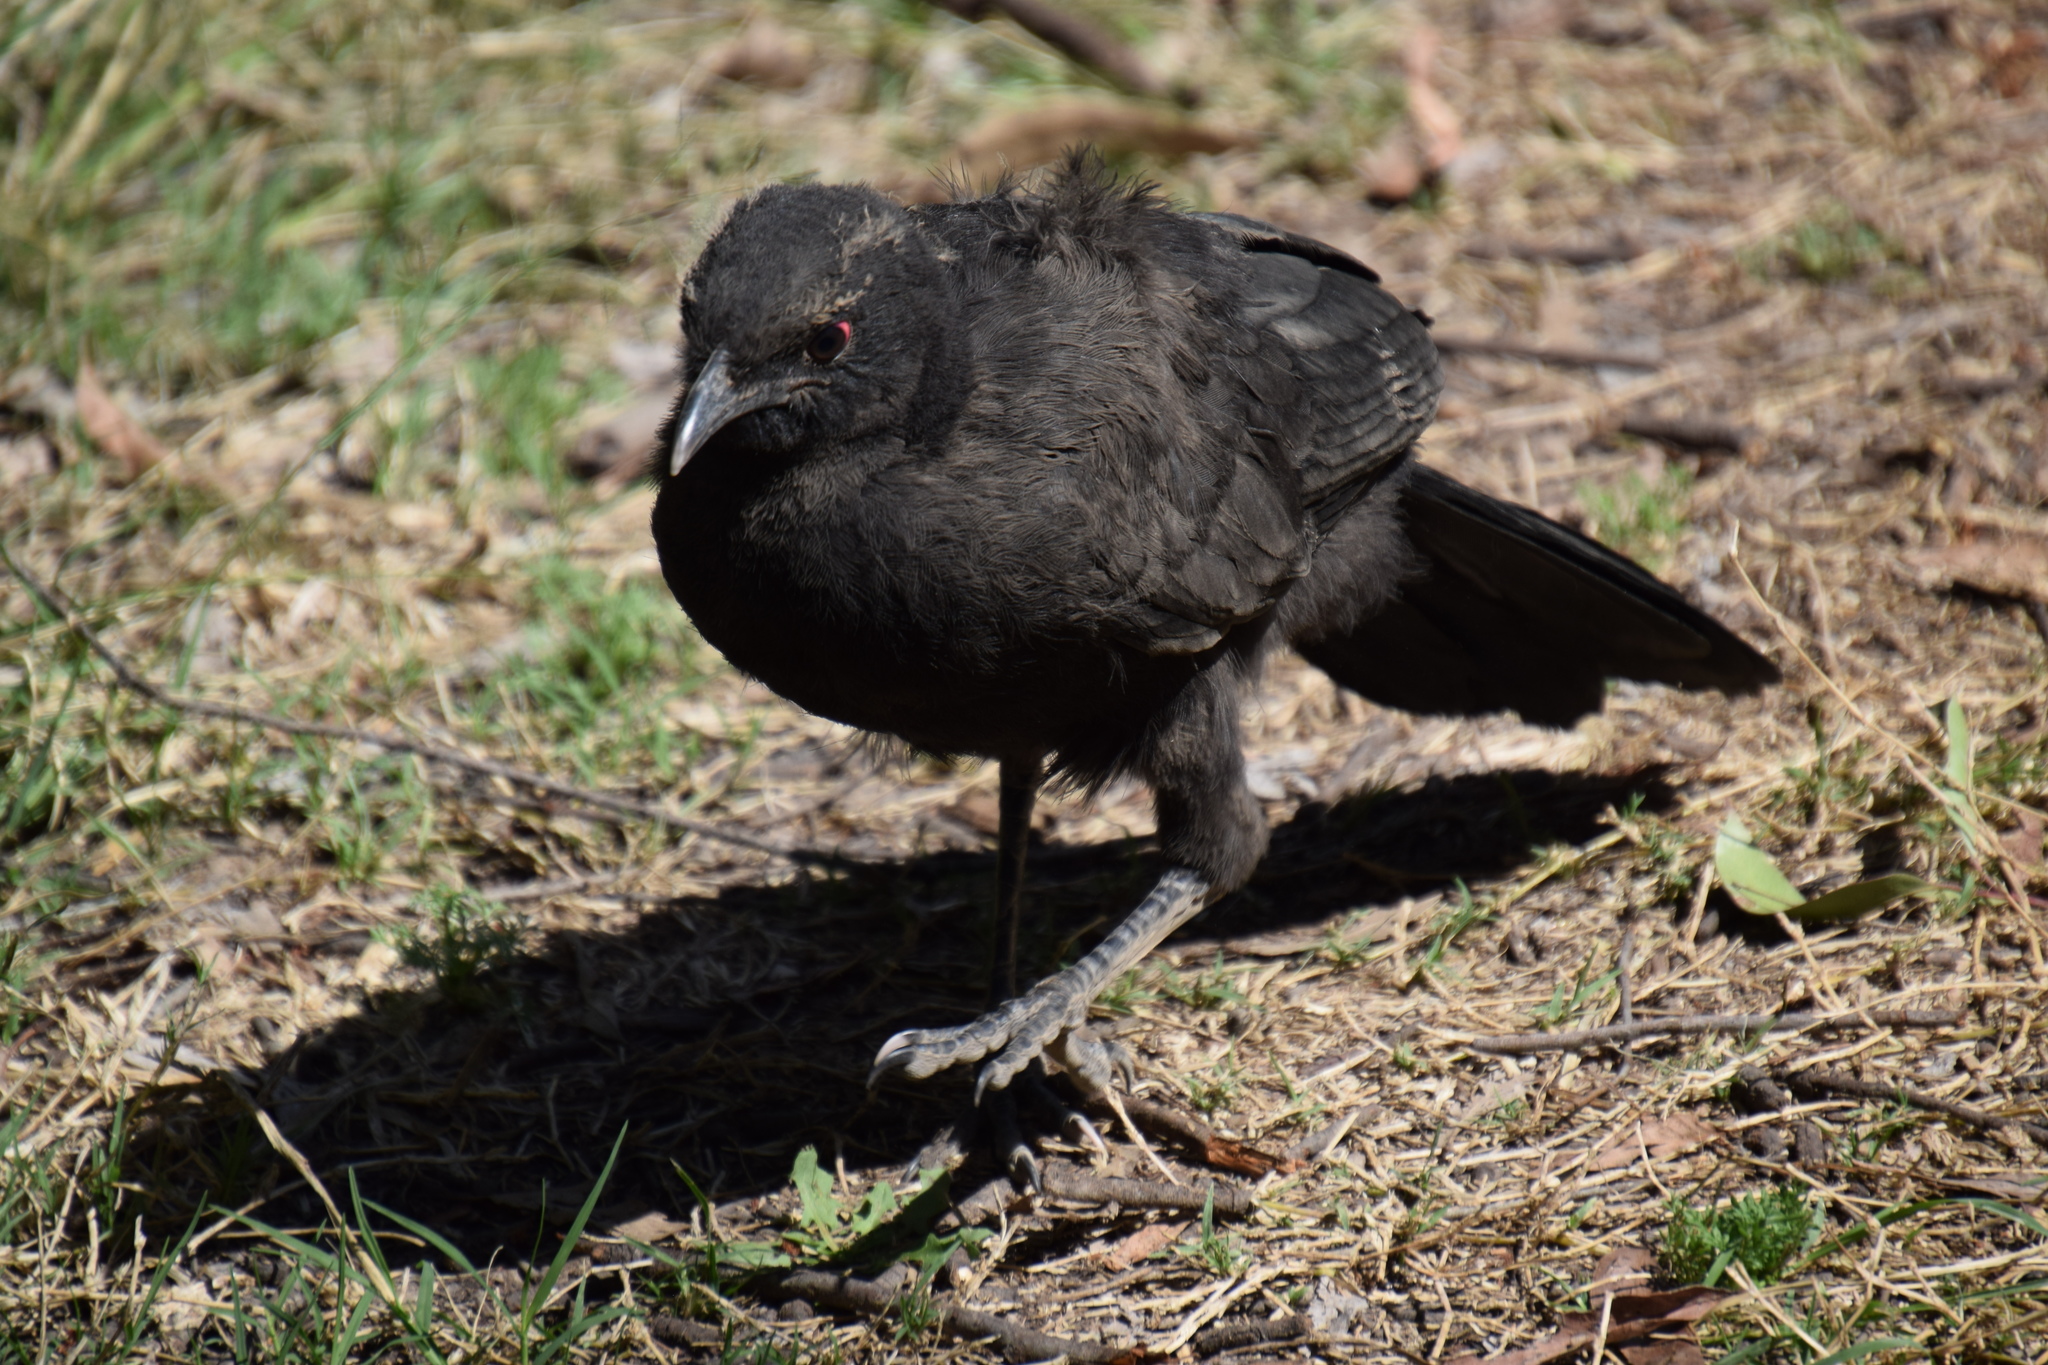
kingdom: Animalia
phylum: Chordata
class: Aves
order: Passeriformes
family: Corcoracidae
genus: Corcorax
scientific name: Corcorax melanoramphos
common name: White-winged chough
